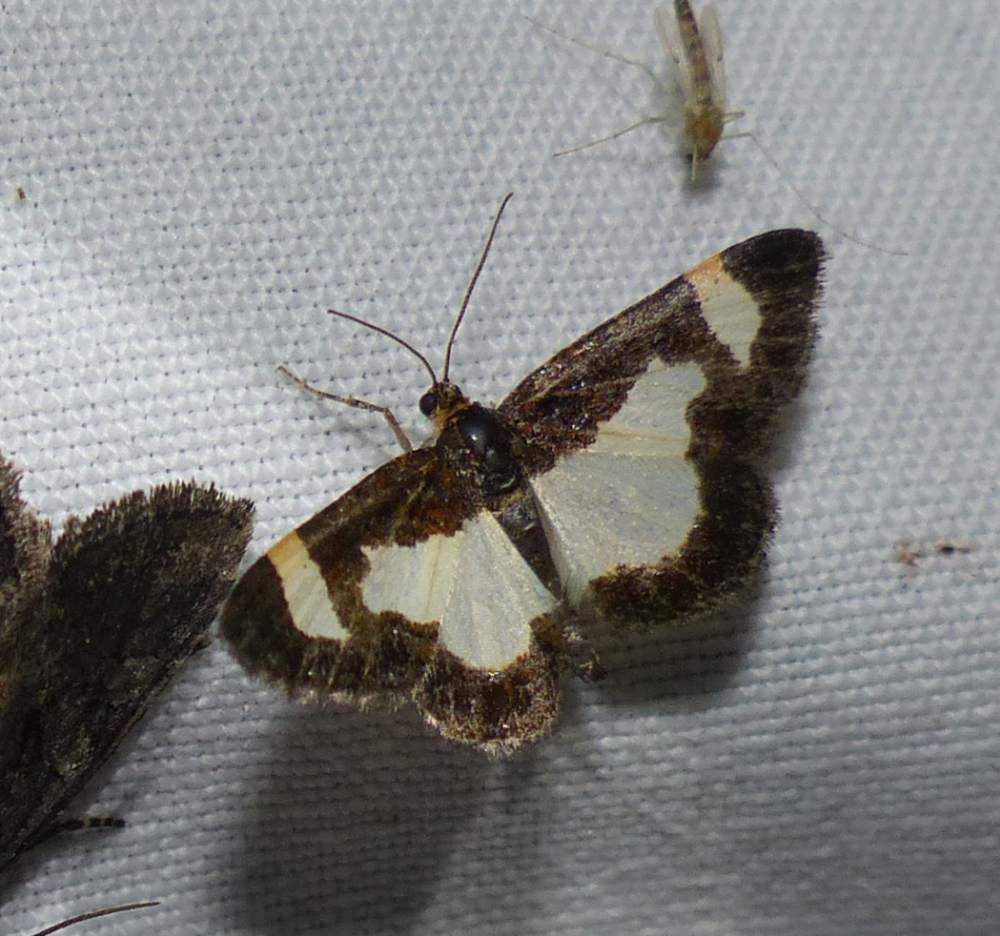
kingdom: Animalia
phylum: Arthropoda
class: Insecta
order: Lepidoptera
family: Geometridae
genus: Heliomata
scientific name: Heliomata cycladata
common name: Common spring moth
